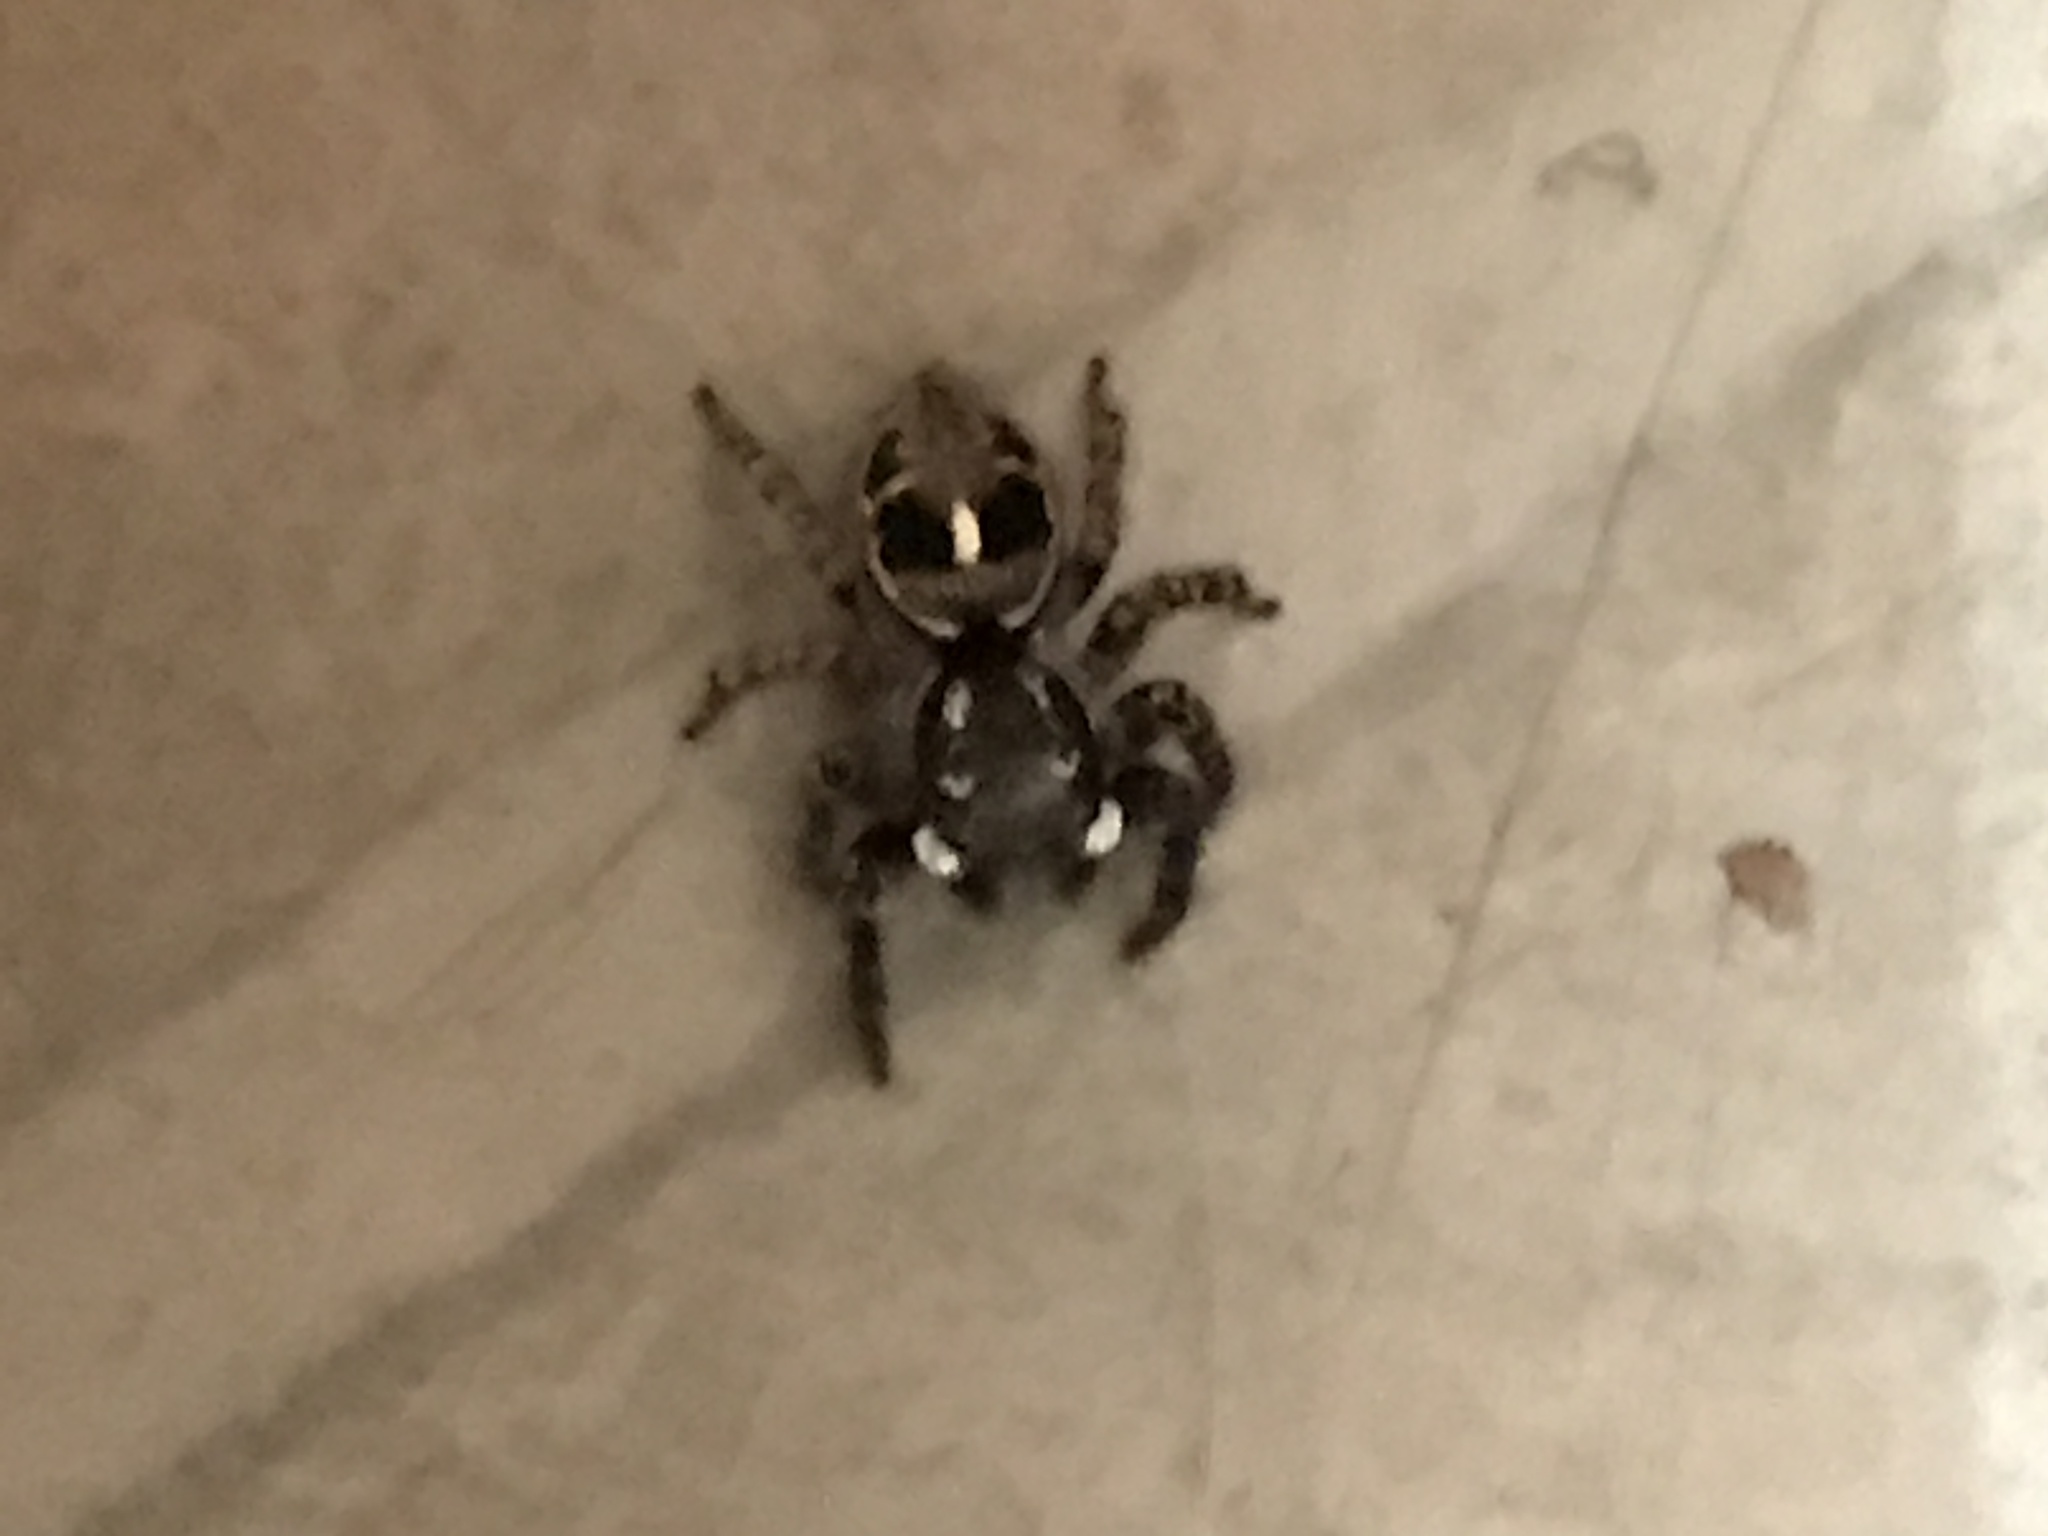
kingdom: Animalia
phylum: Arthropoda
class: Arachnida
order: Araneae
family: Salticidae
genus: Anasaitis
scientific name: Anasaitis canosa
